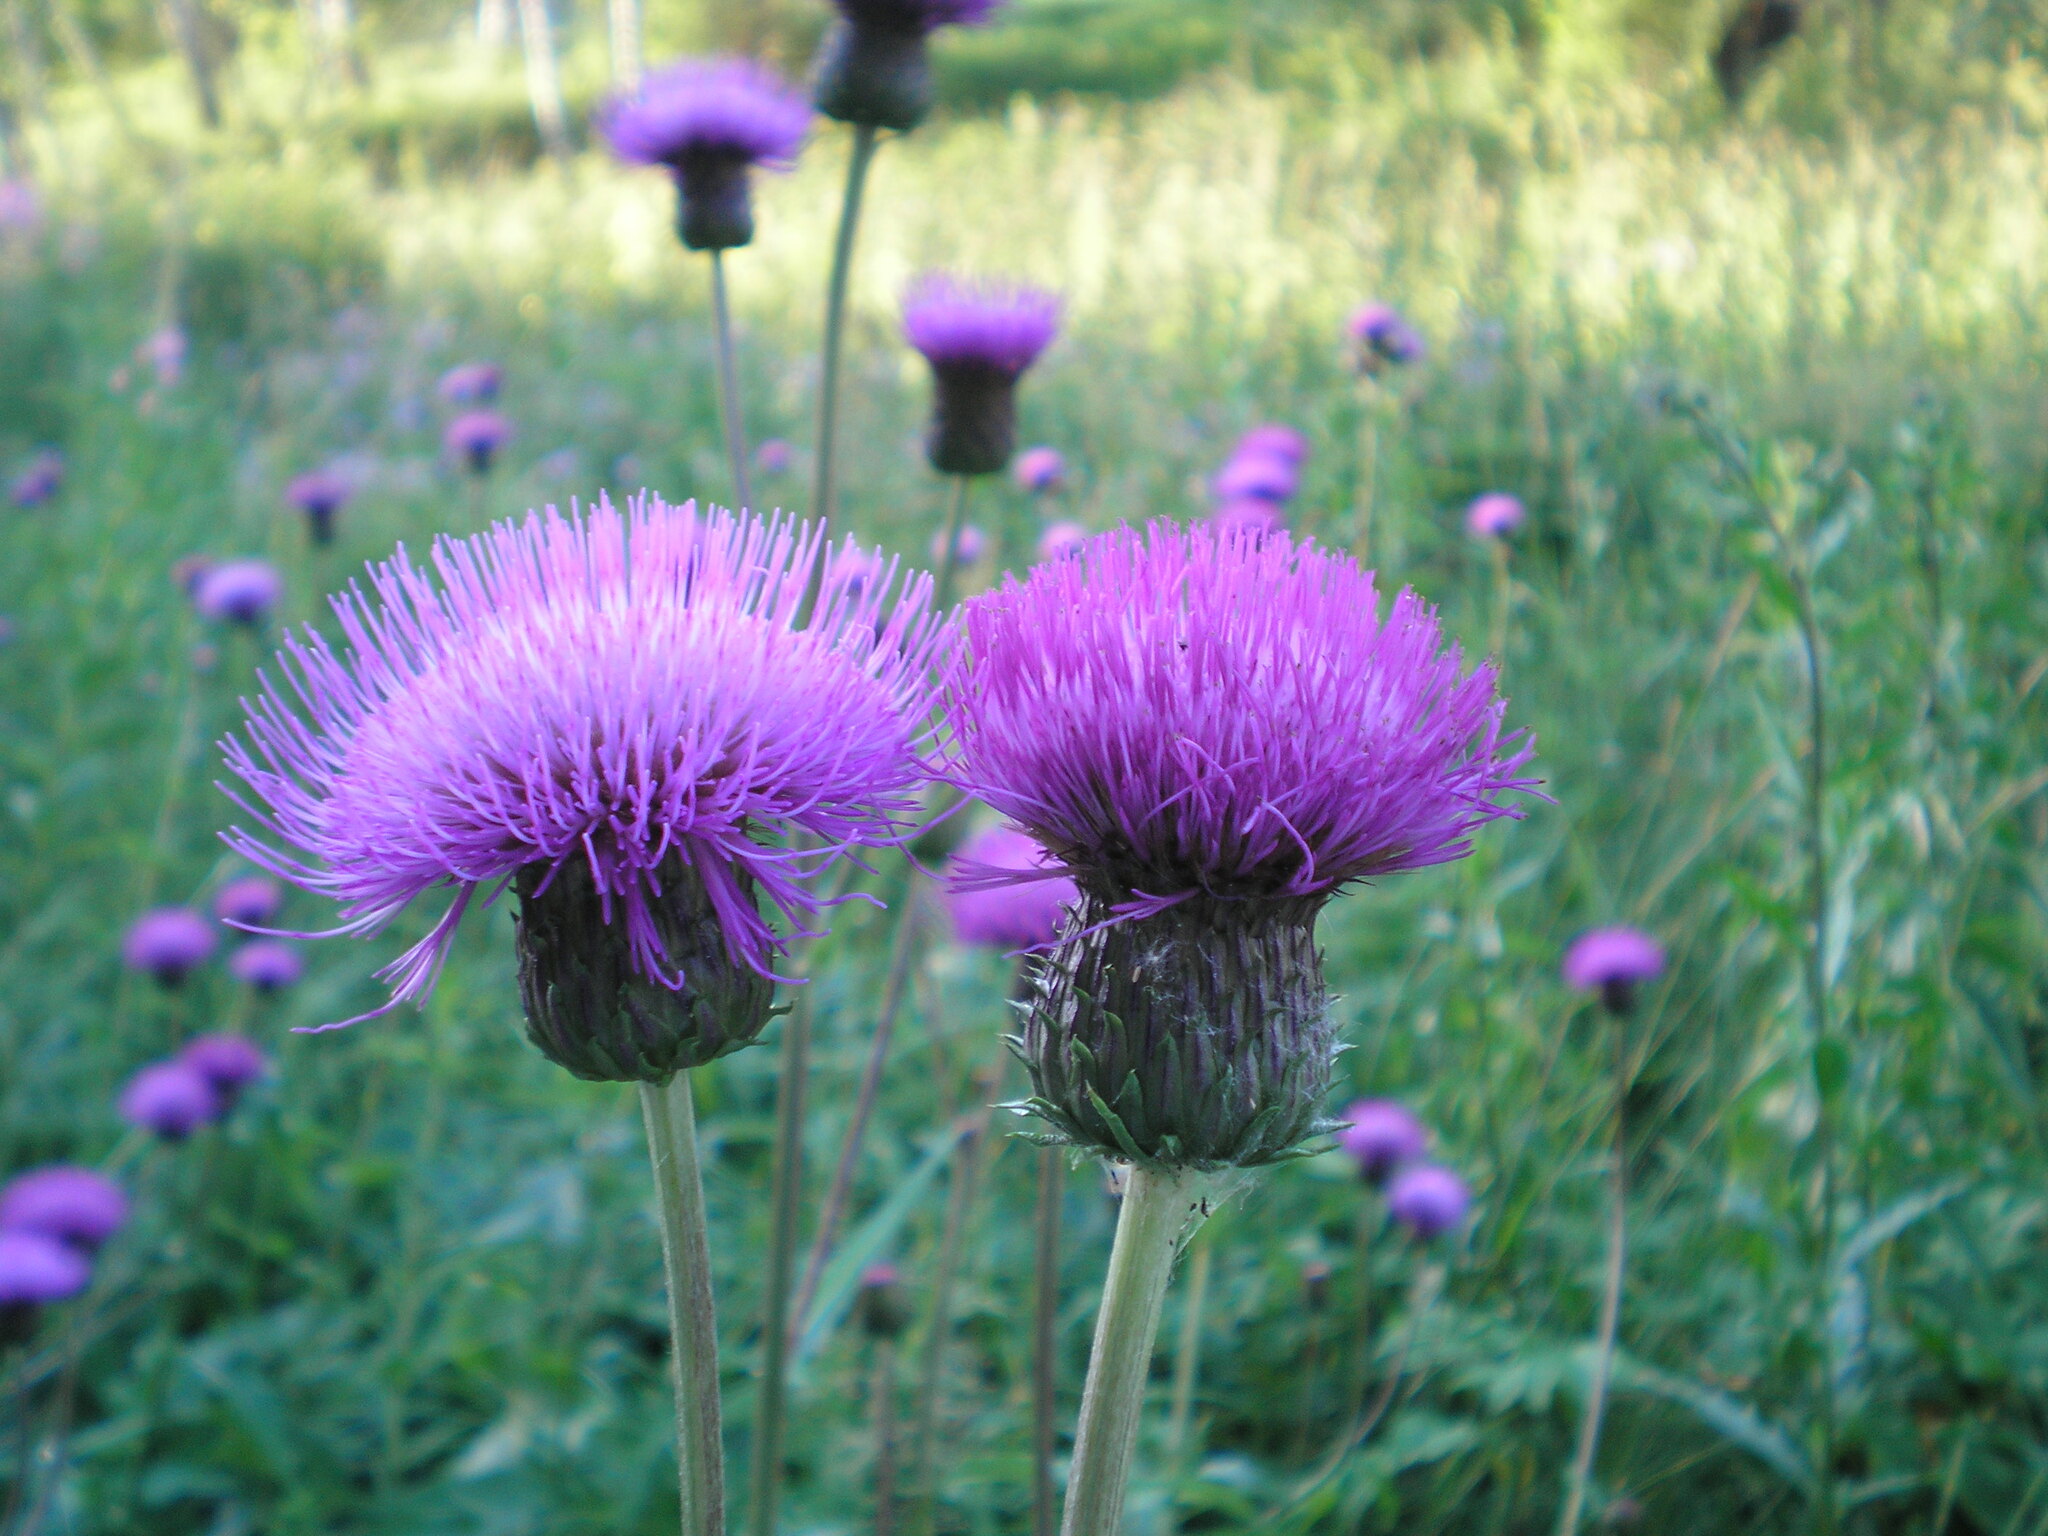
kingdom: Plantae
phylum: Tracheophyta
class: Magnoliopsida
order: Asterales
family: Asteraceae
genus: Cirsium
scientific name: Cirsium heterophyllum
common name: Melancholy thistle
